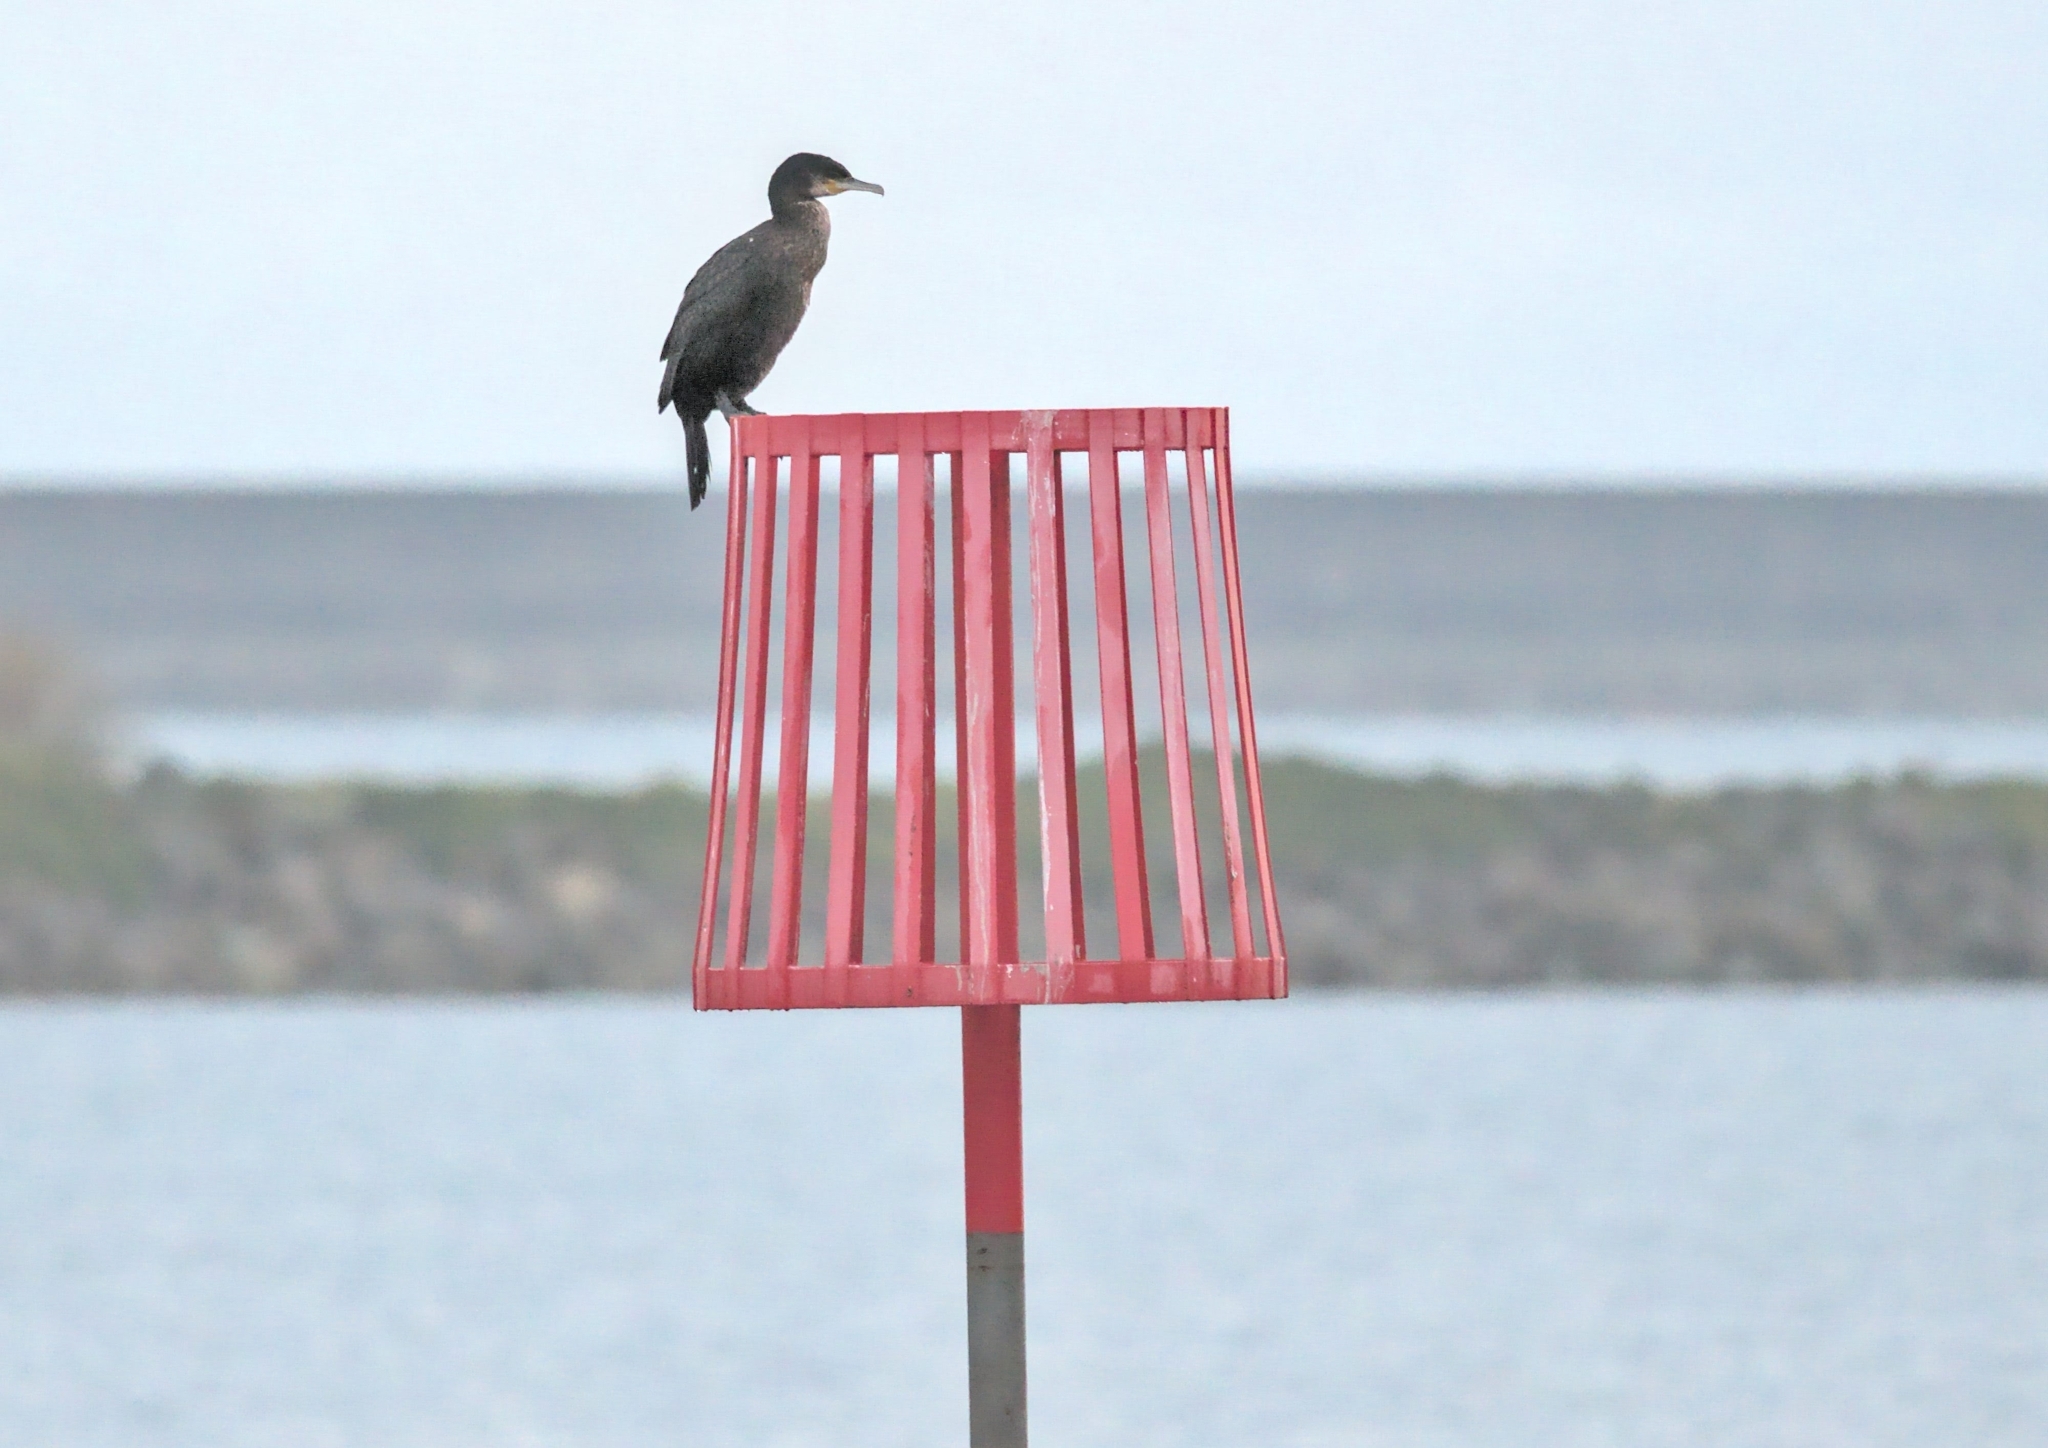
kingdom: Animalia
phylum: Chordata
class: Aves
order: Suliformes
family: Phalacrocoracidae
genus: Phalacrocorax
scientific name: Phalacrocorax carbo
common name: Great cormorant
